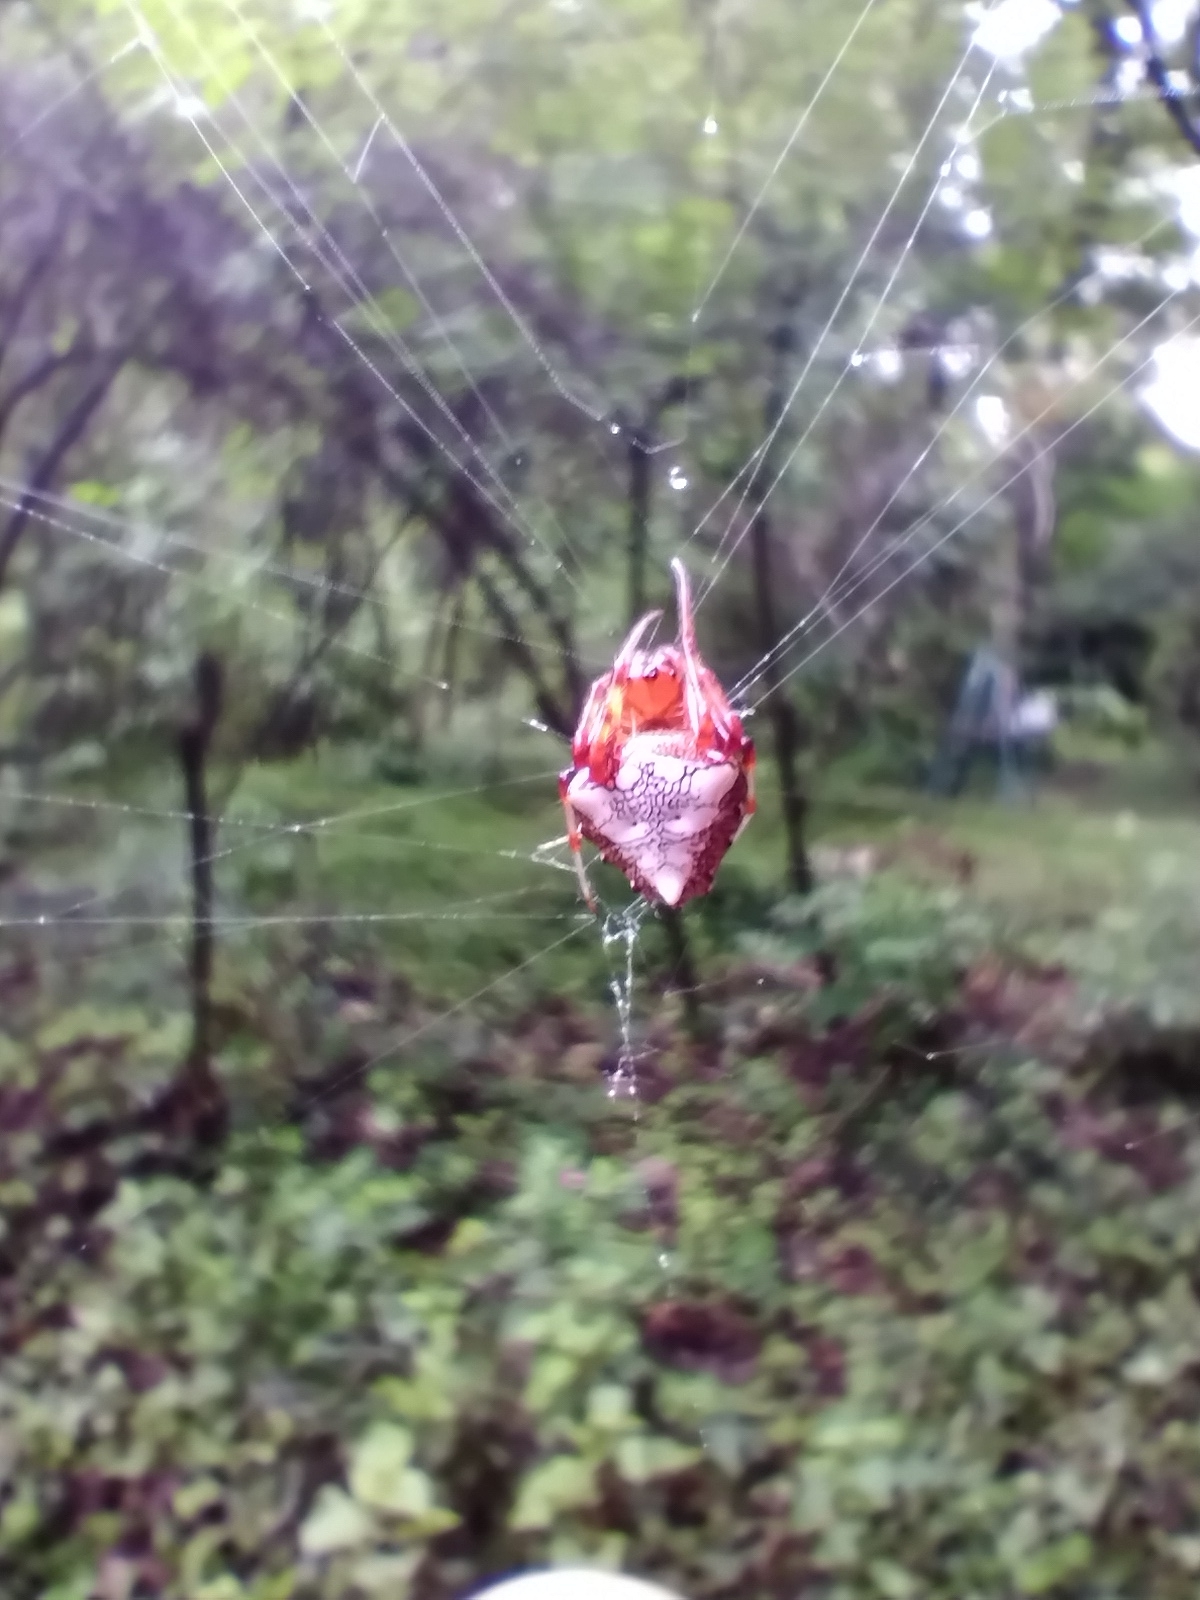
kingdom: Animalia
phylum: Arthropoda
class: Arachnida
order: Araneae
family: Araneidae
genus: Verrucosa
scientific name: Verrucosa arenata
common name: Orb weavers
